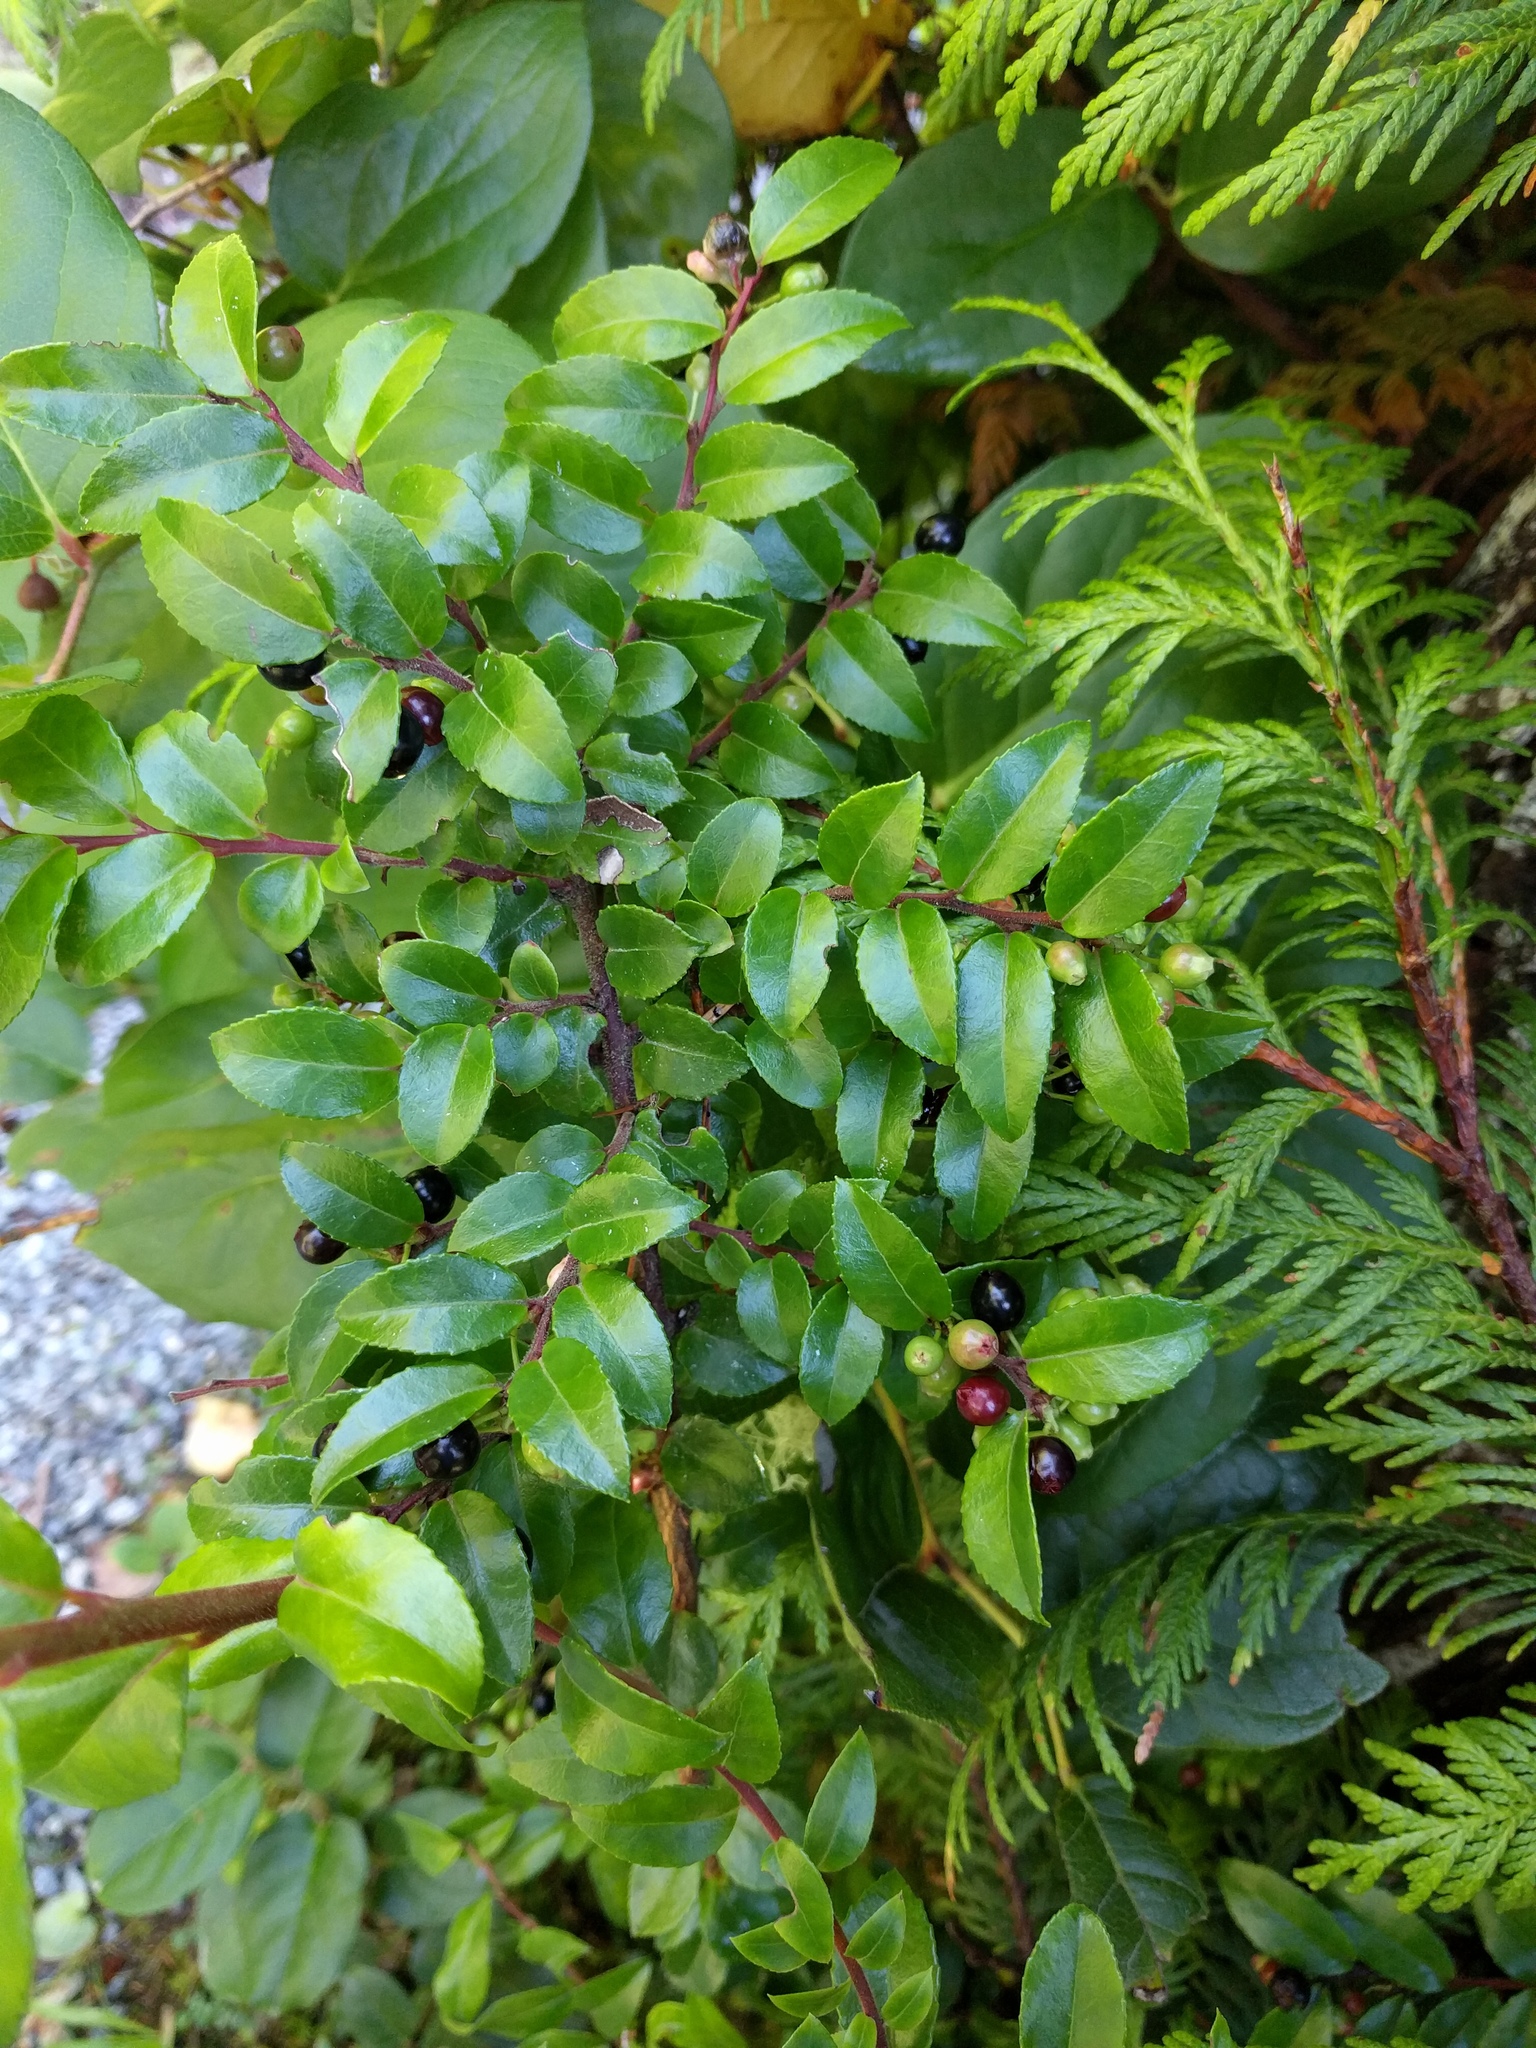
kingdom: Plantae
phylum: Tracheophyta
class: Magnoliopsida
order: Ericales
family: Ericaceae
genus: Vaccinium
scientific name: Vaccinium ovatum
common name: California-huckleberry
